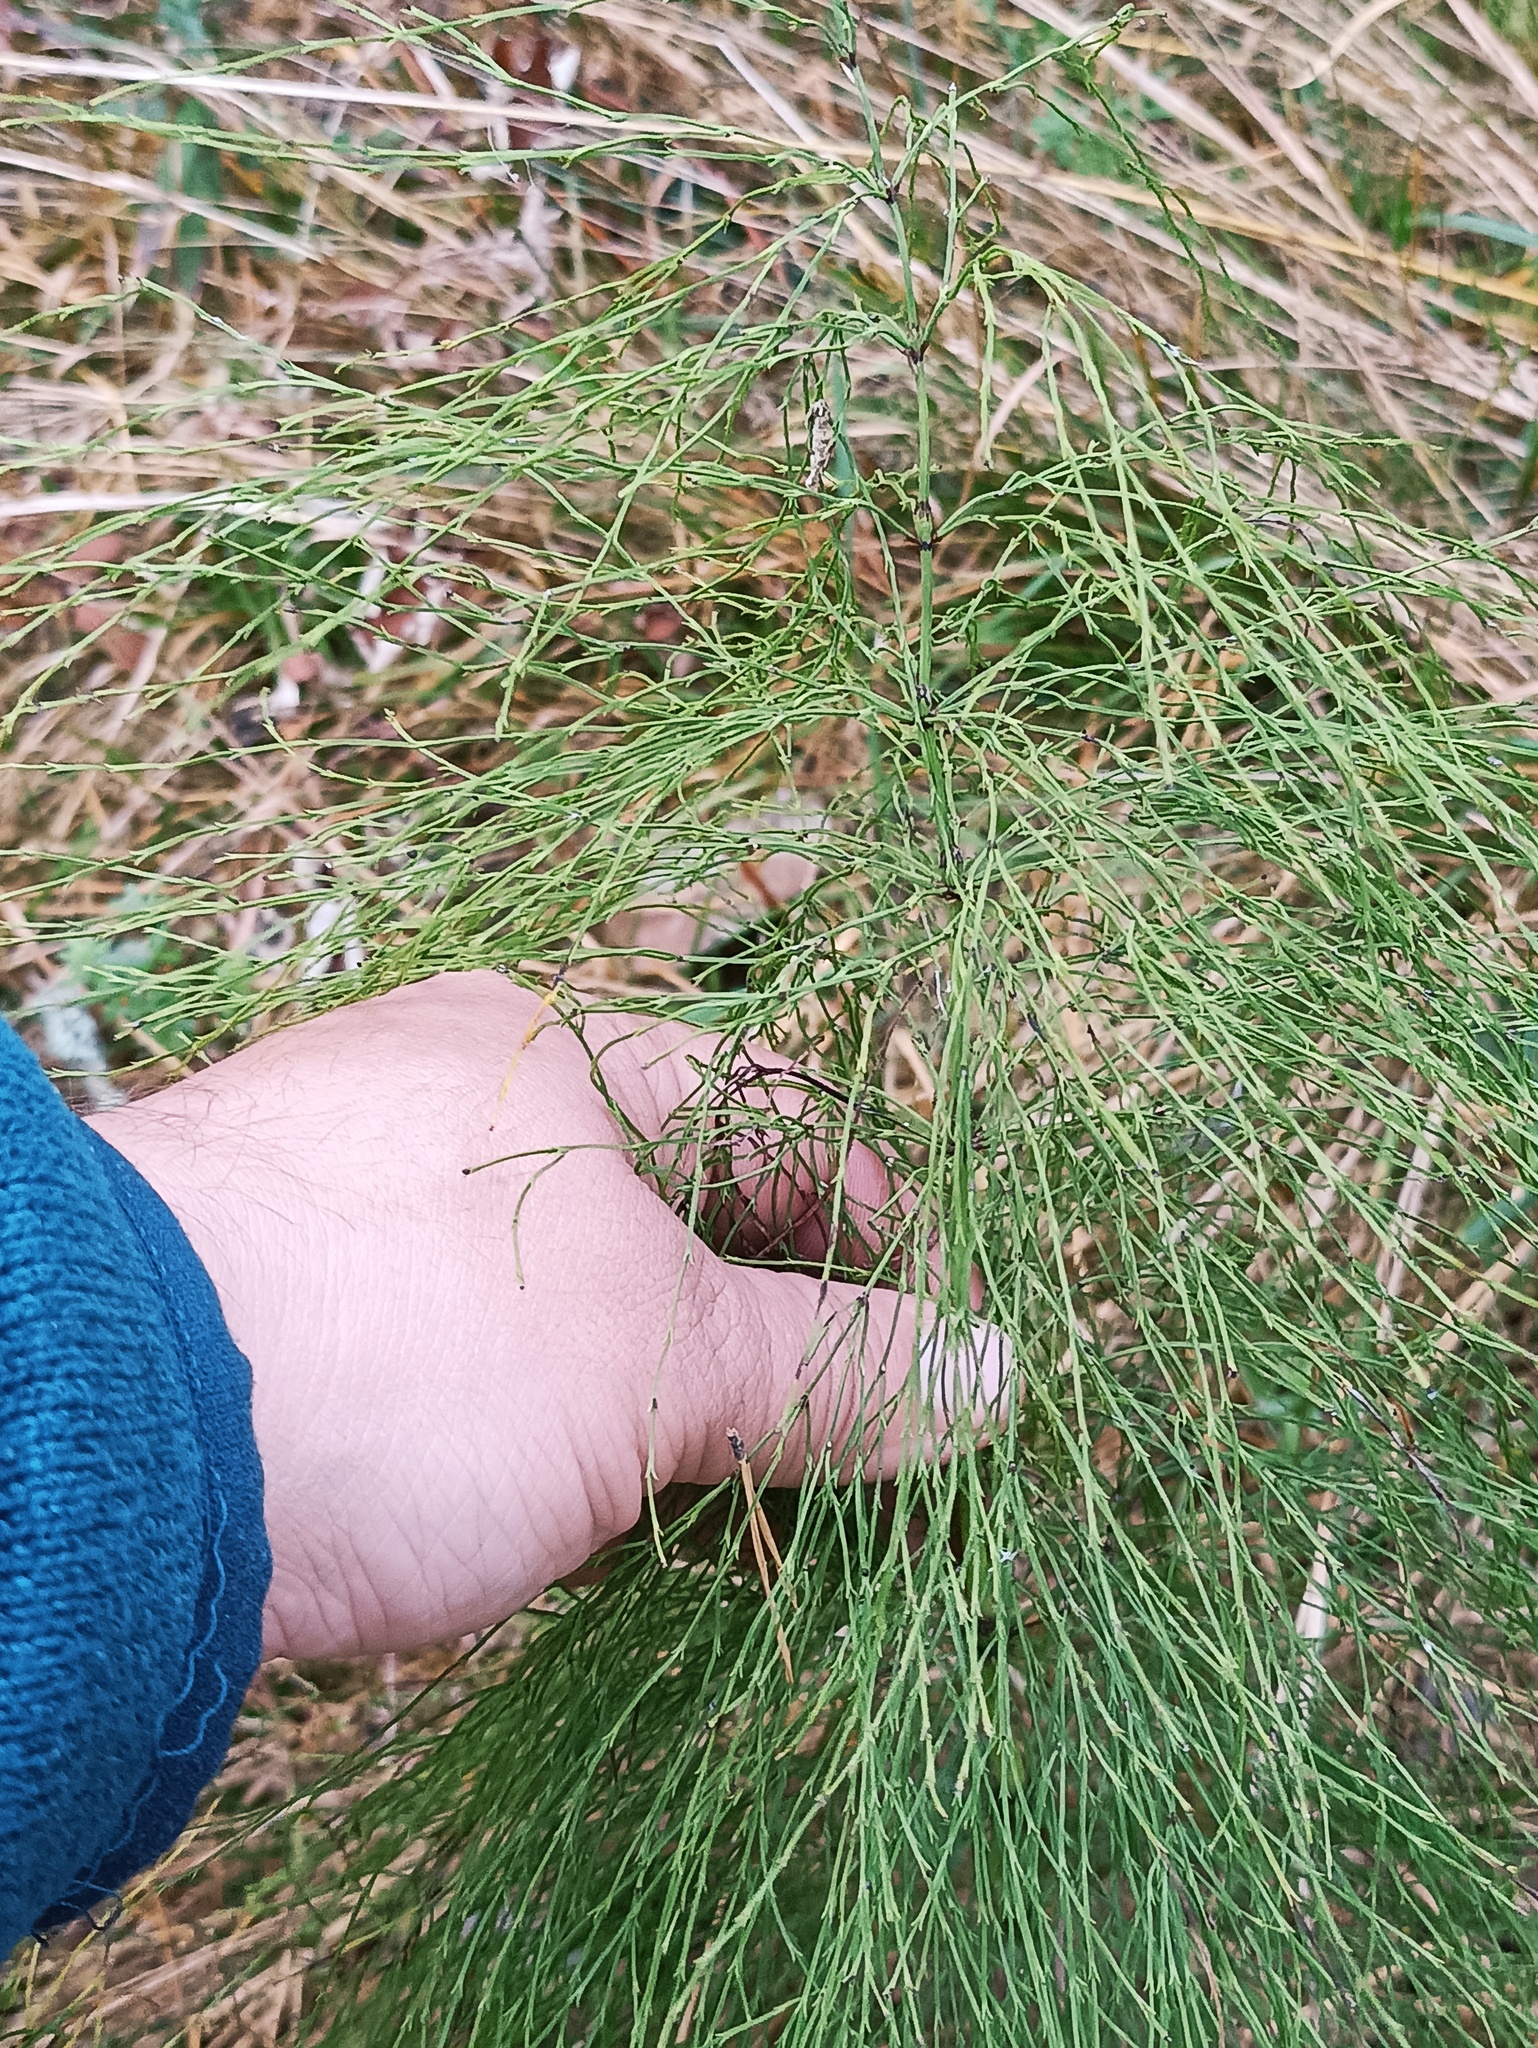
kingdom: Plantae
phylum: Tracheophyta
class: Polypodiopsida
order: Equisetales
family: Equisetaceae
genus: Equisetum
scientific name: Equisetum sylvaticum
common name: Wood horsetail
